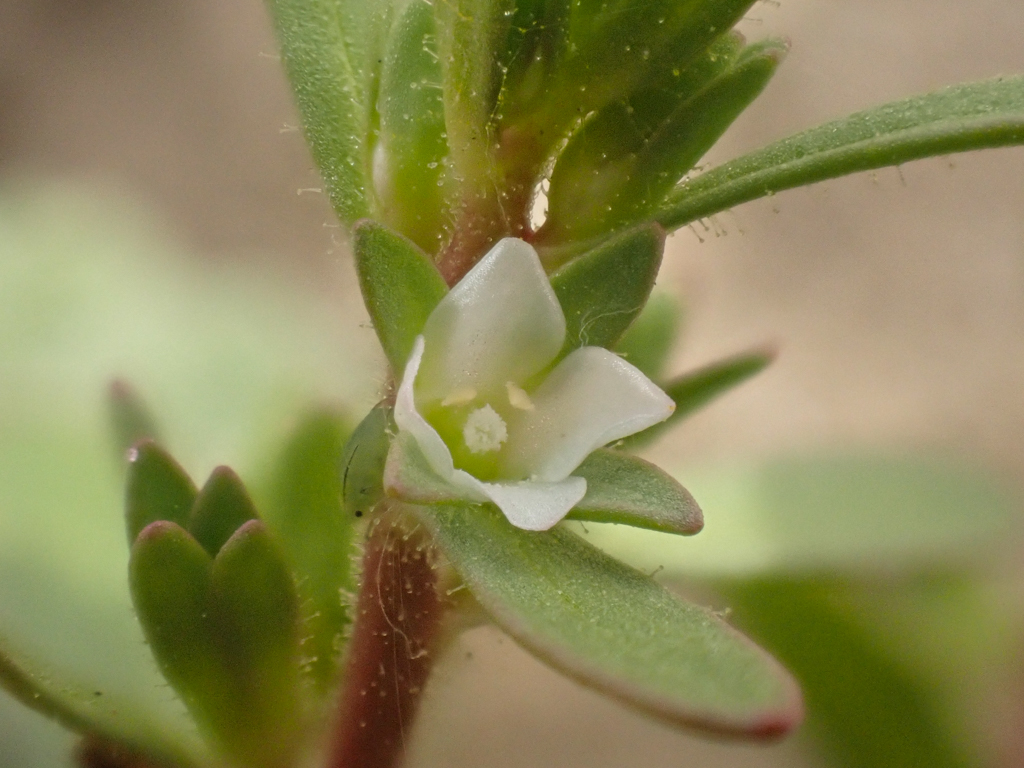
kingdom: Plantae
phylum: Tracheophyta
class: Magnoliopsida
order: Lamiales
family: Plantaginaceae
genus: Veronica
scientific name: Veronica peregrina
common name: Neckweed
